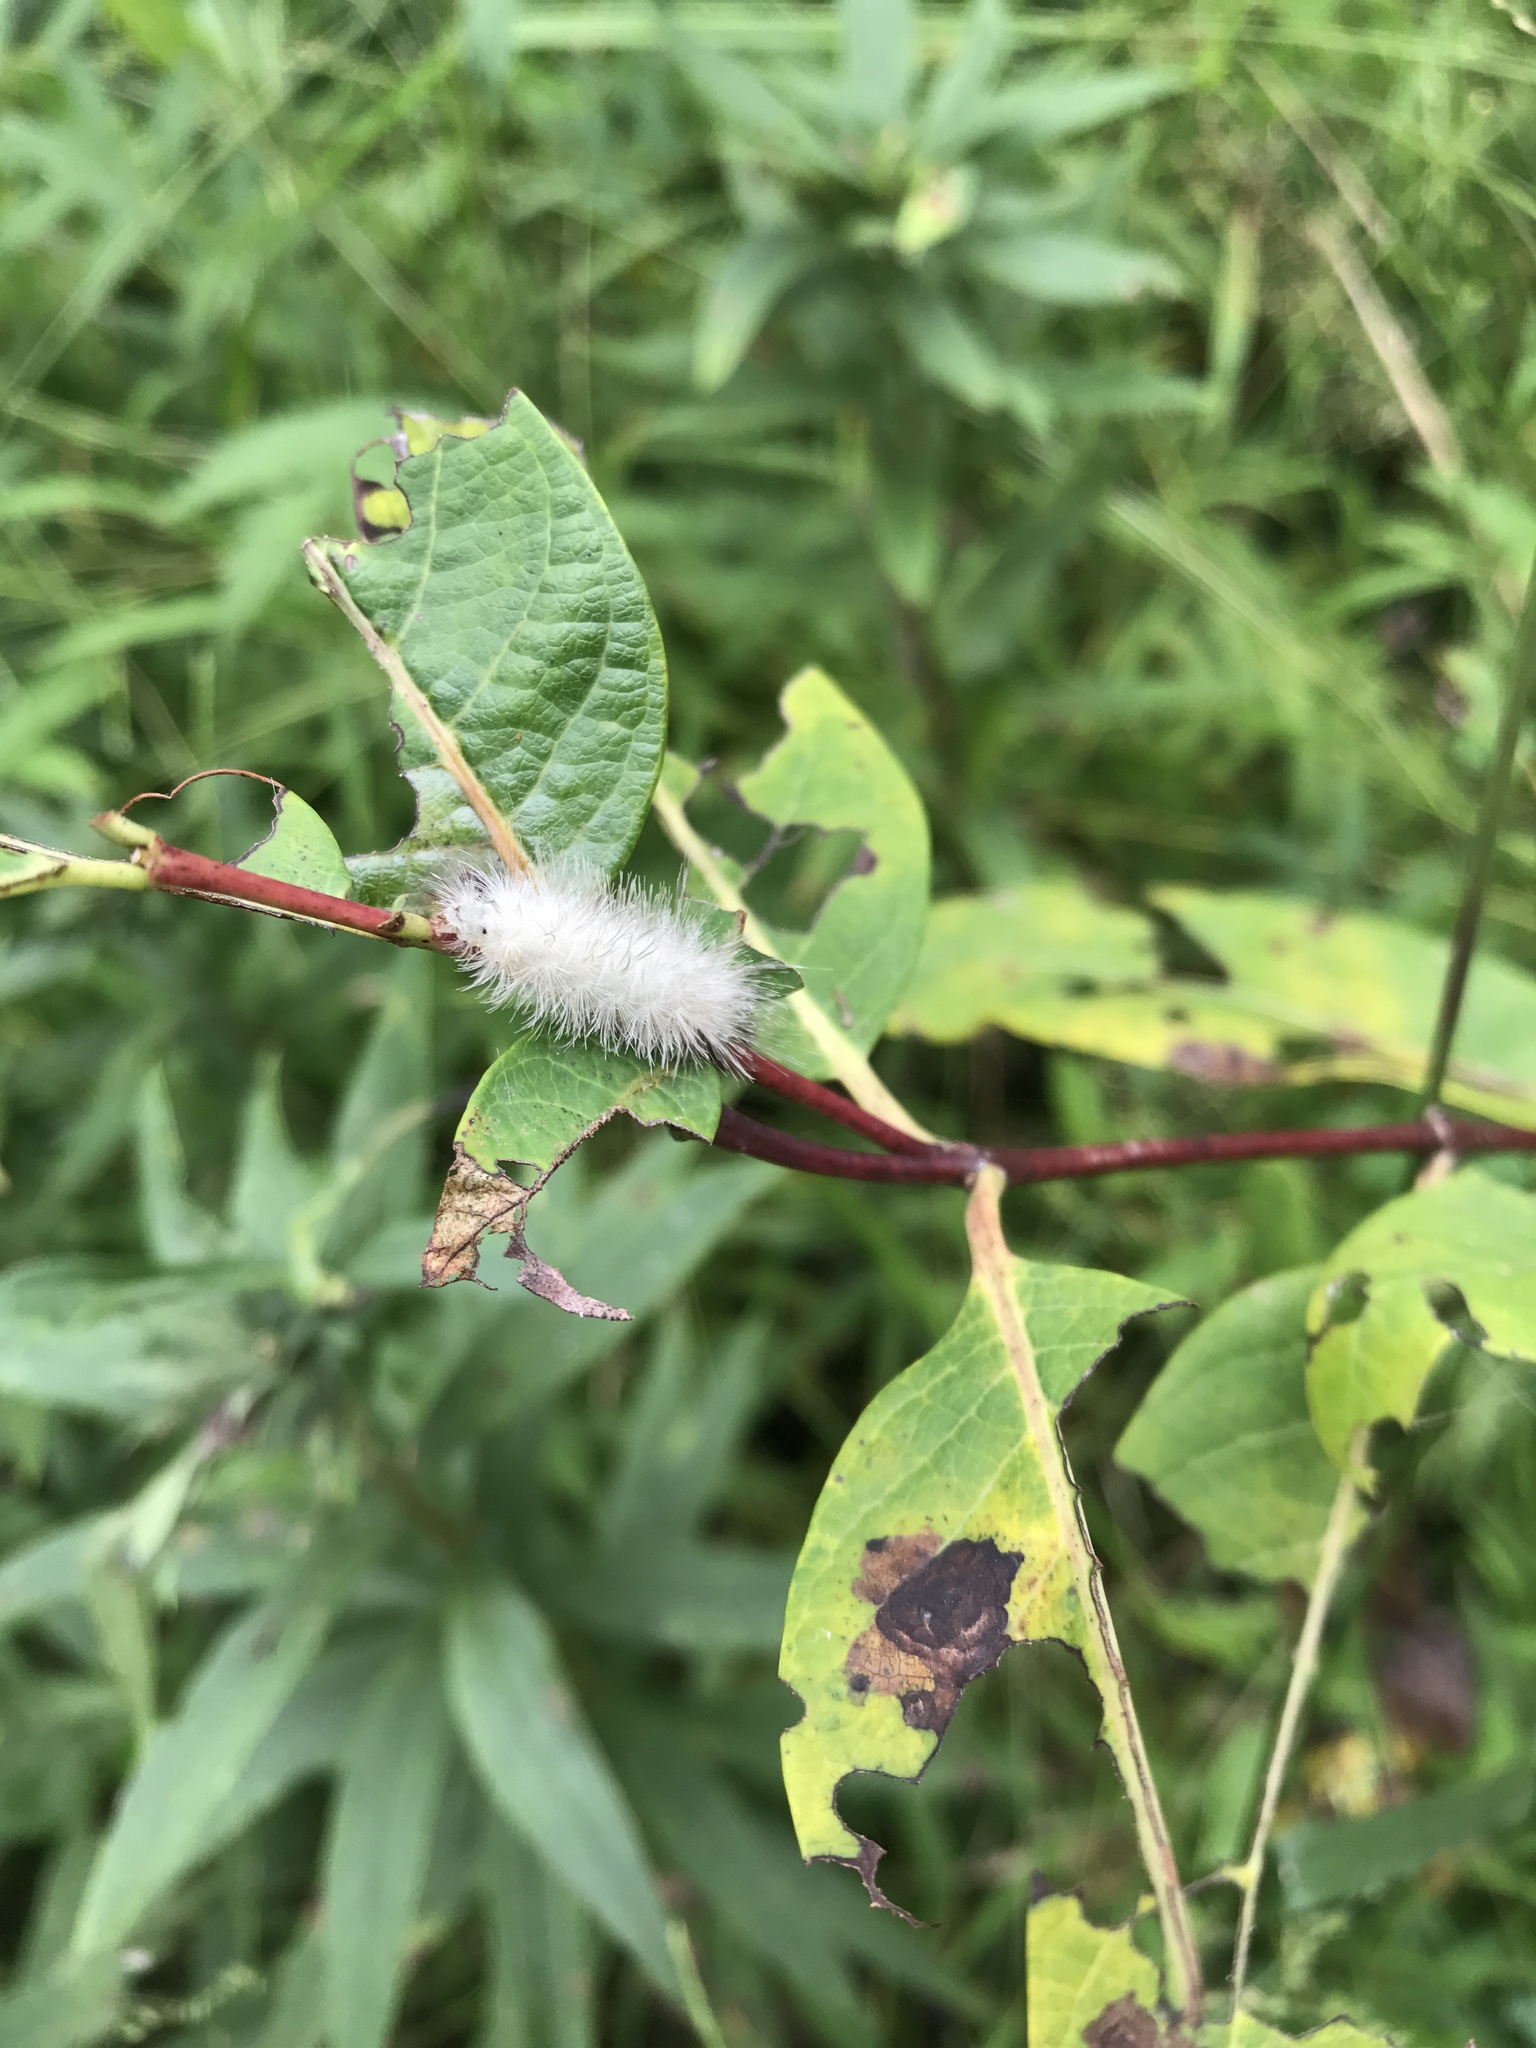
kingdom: Animalia
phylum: Arthropoda
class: Insecta
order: Lepidoptera
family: Erebidae
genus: Cycnia
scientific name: Cycnia tenera
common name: Delicate cycnia moth
